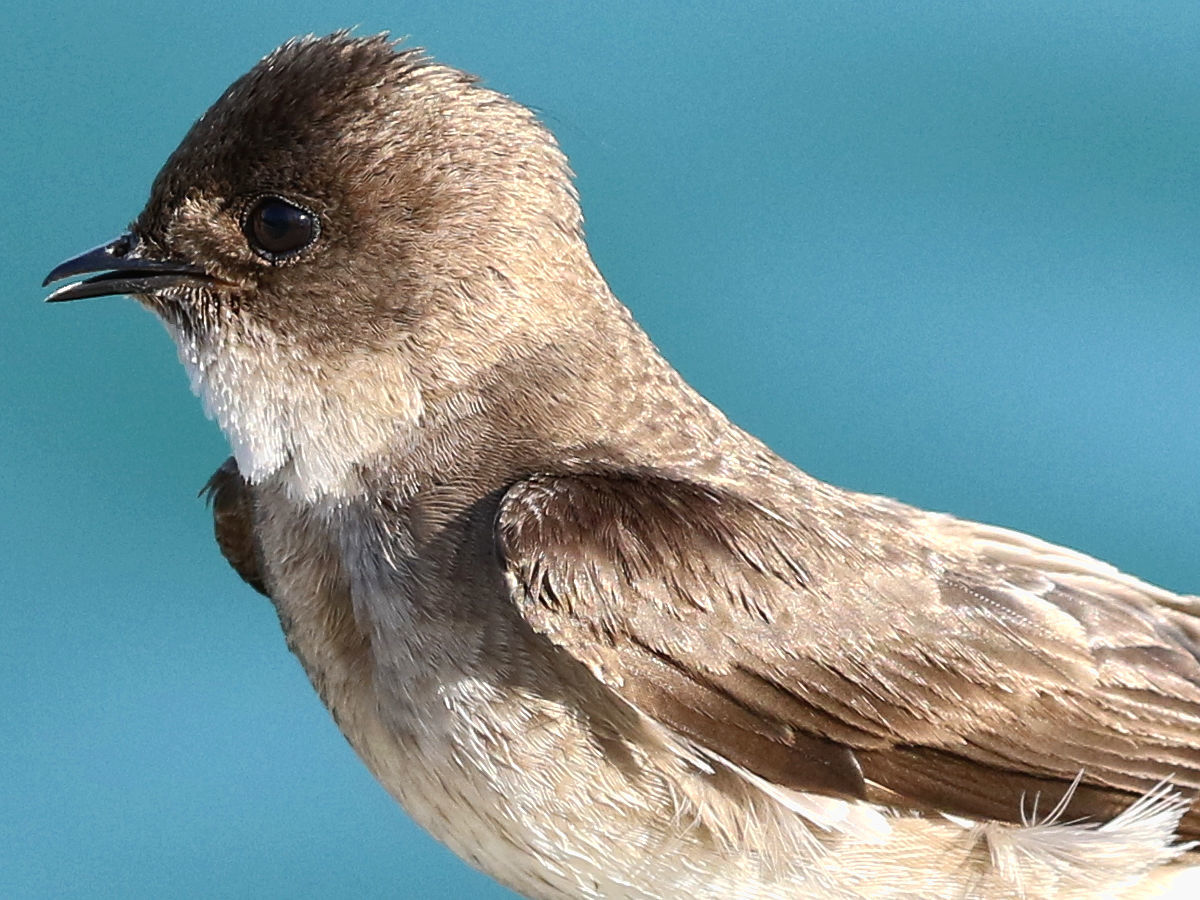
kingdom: Animalia
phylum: Chordata
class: Aves
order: Passeriformes
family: Hirundinidae
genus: Stelgidopteryx
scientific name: Stelgidopteryx serripennis
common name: Northern rough-winged swallow
